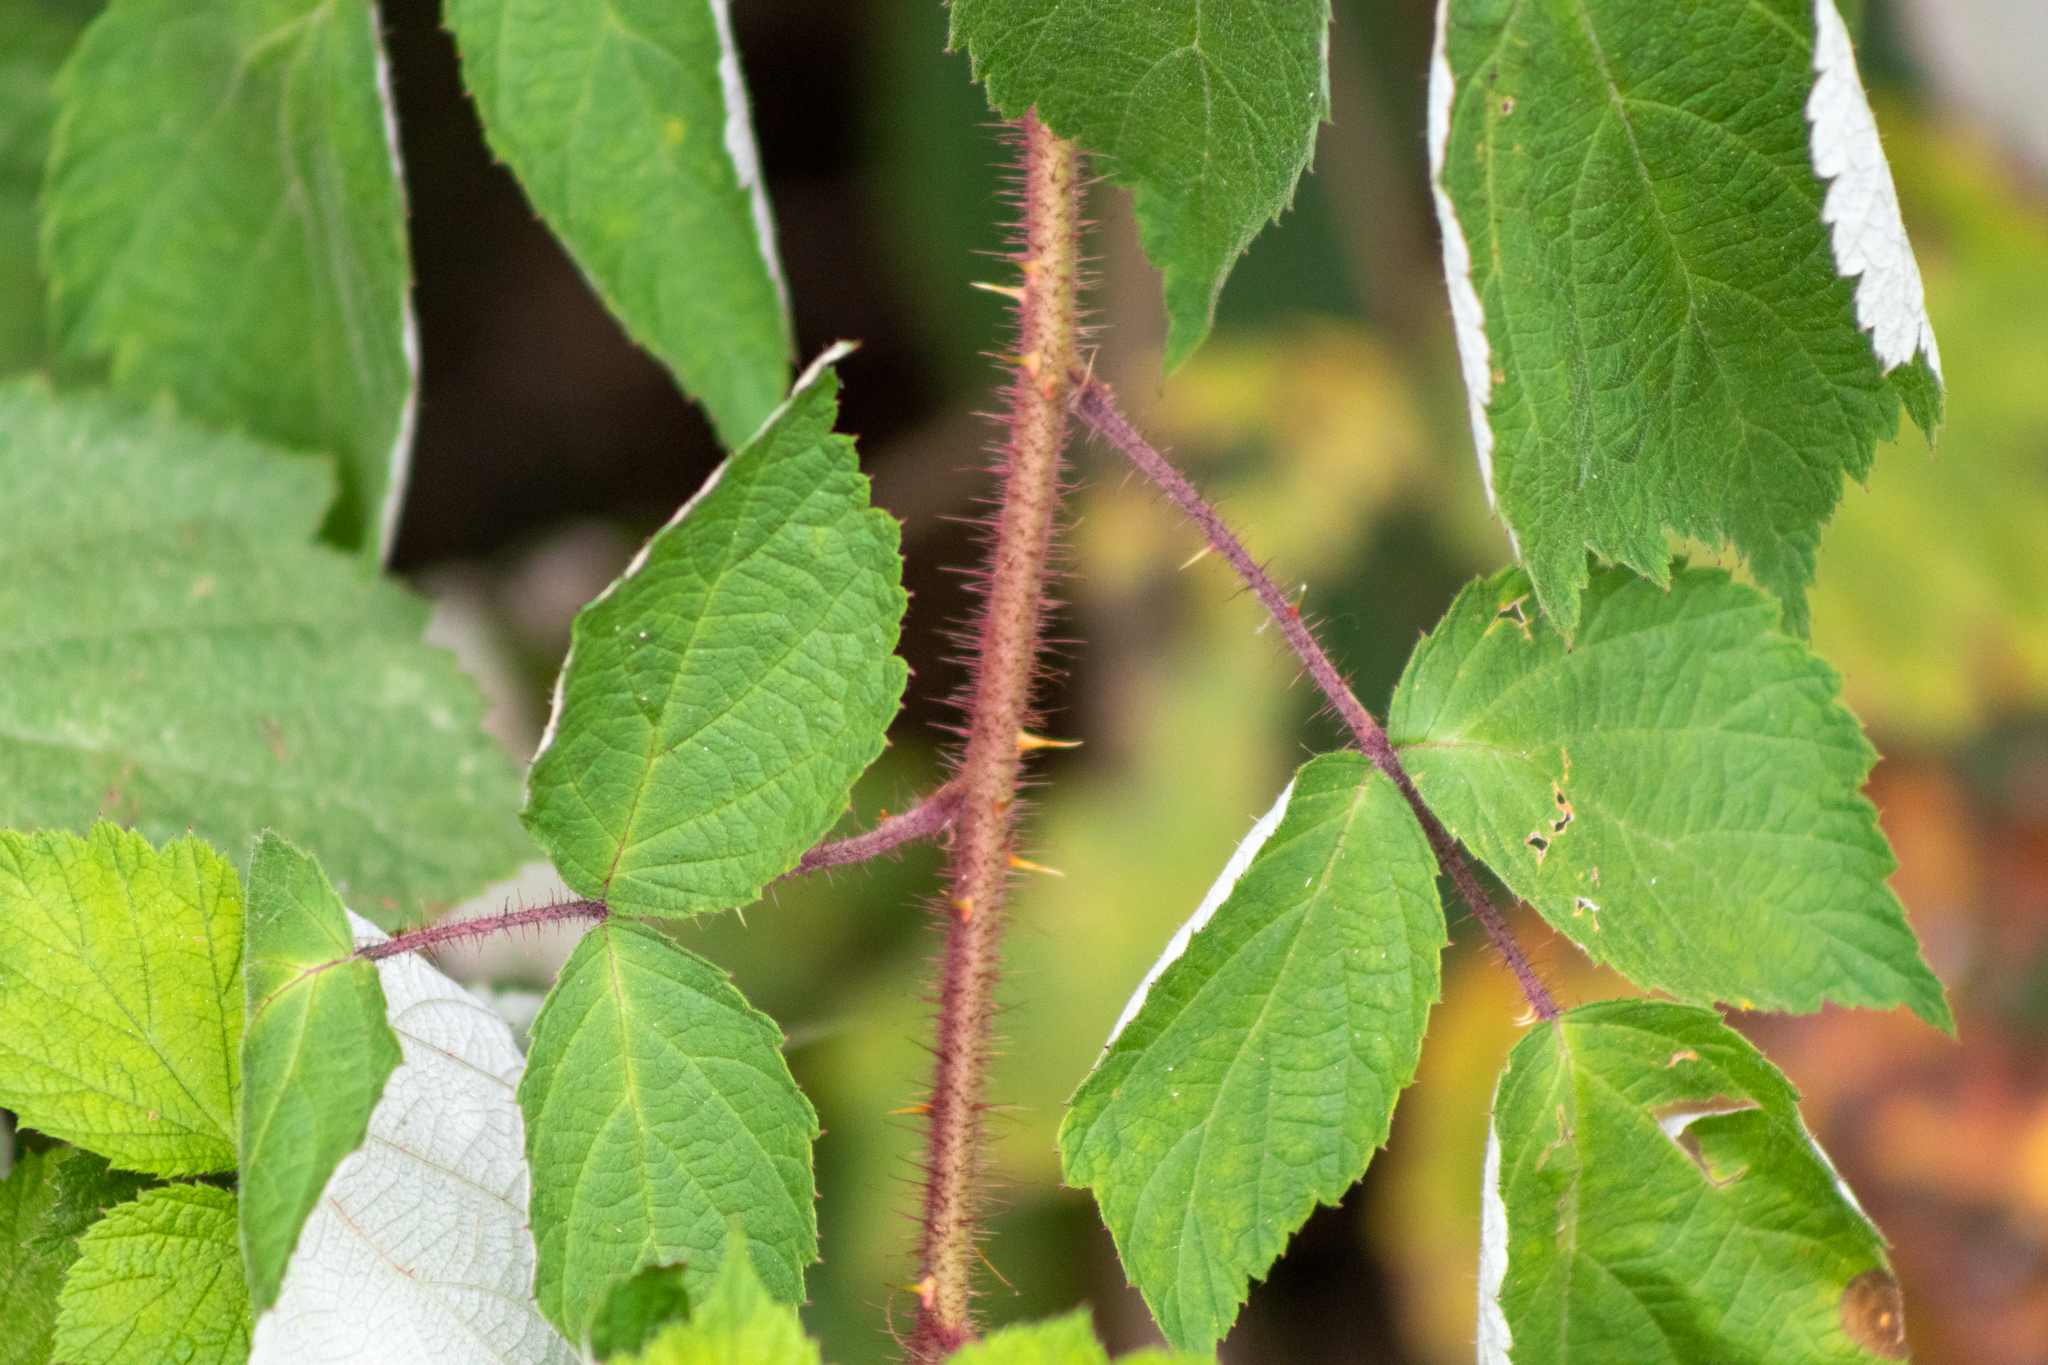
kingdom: Plantae
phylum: Tracheophyta
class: Magnoliopsida
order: Rosales
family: Rosaceae
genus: Rubus
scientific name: Rubus phoenicolasius
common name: Japanese wineberry
